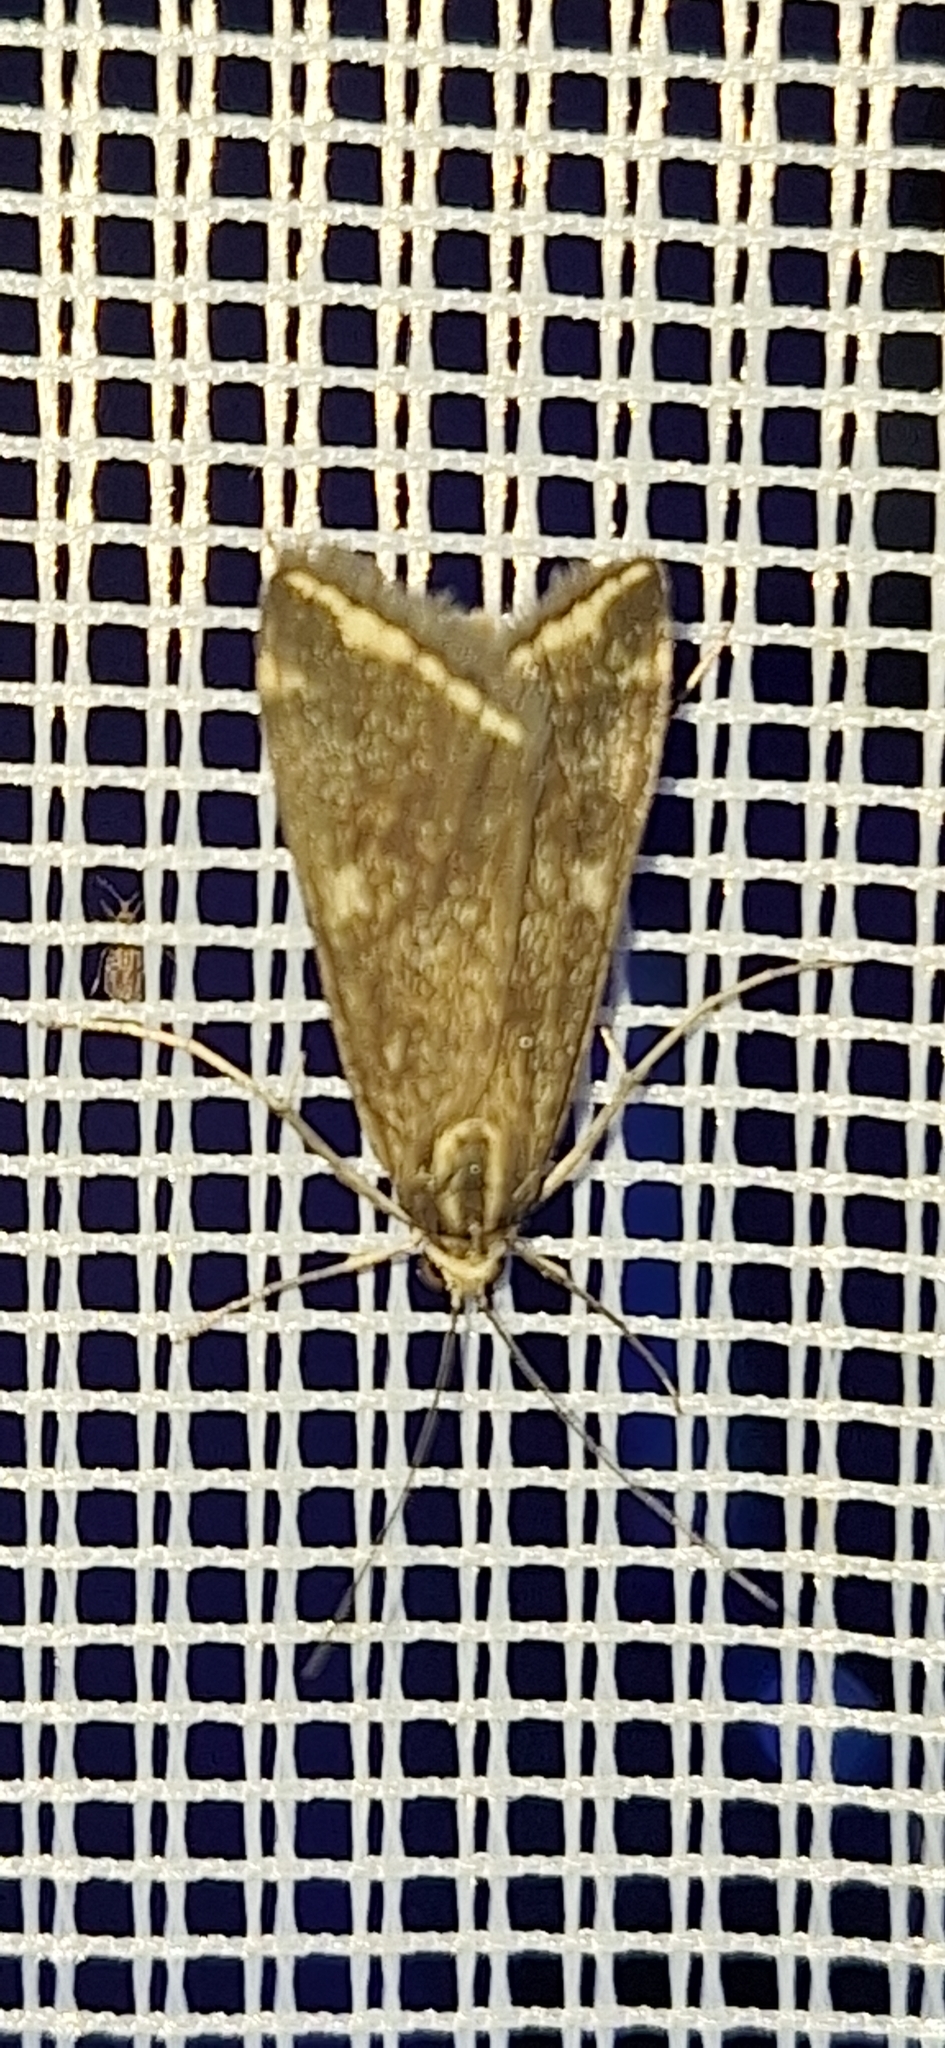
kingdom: Animalia
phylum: Arthropoda
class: Insecta
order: Lepidoptera
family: Crambidae
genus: Loxostege
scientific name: Loxostege sticticalis
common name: Crambid moth
